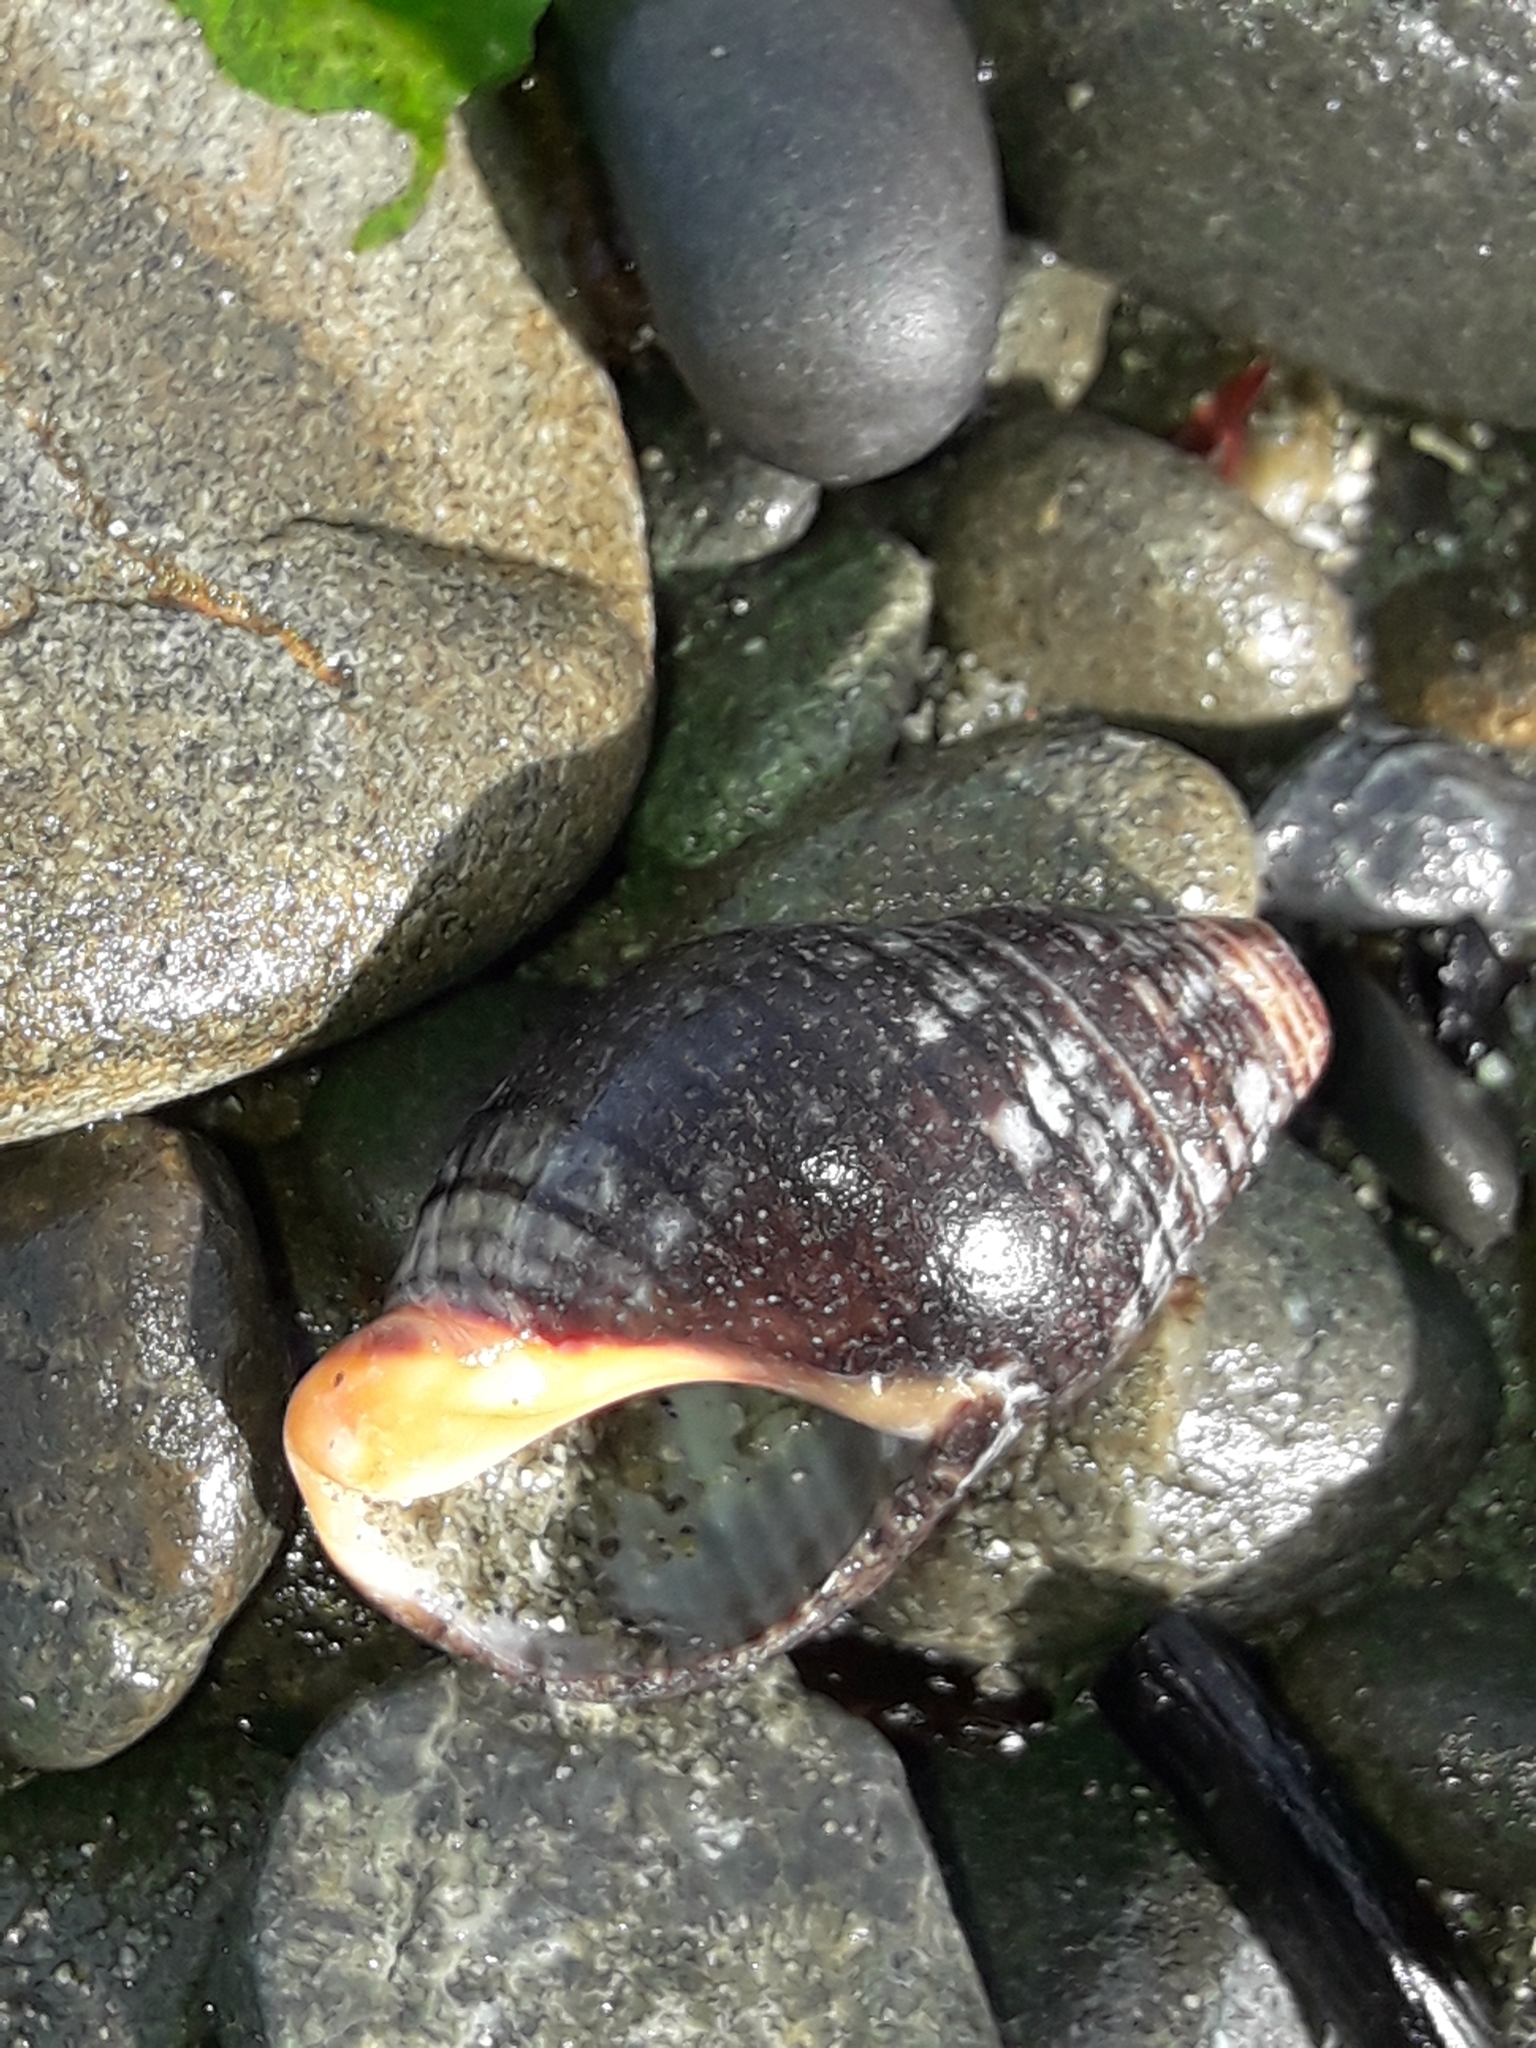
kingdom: Animalia
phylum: Mollusca
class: Gastropoda
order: Neogastropoda
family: Cominellidae
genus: Cominella
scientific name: Cominella virgata
